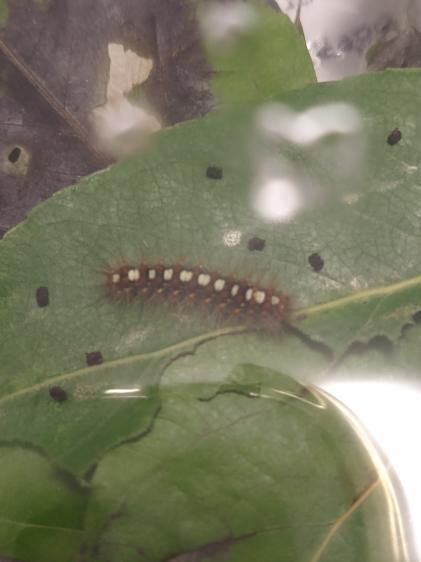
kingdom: Animalia
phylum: Arthropoda
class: Insecta
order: Lepidoptera
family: Erebidae
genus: Leucoma
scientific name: Leucoma salicis
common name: White satin moth
